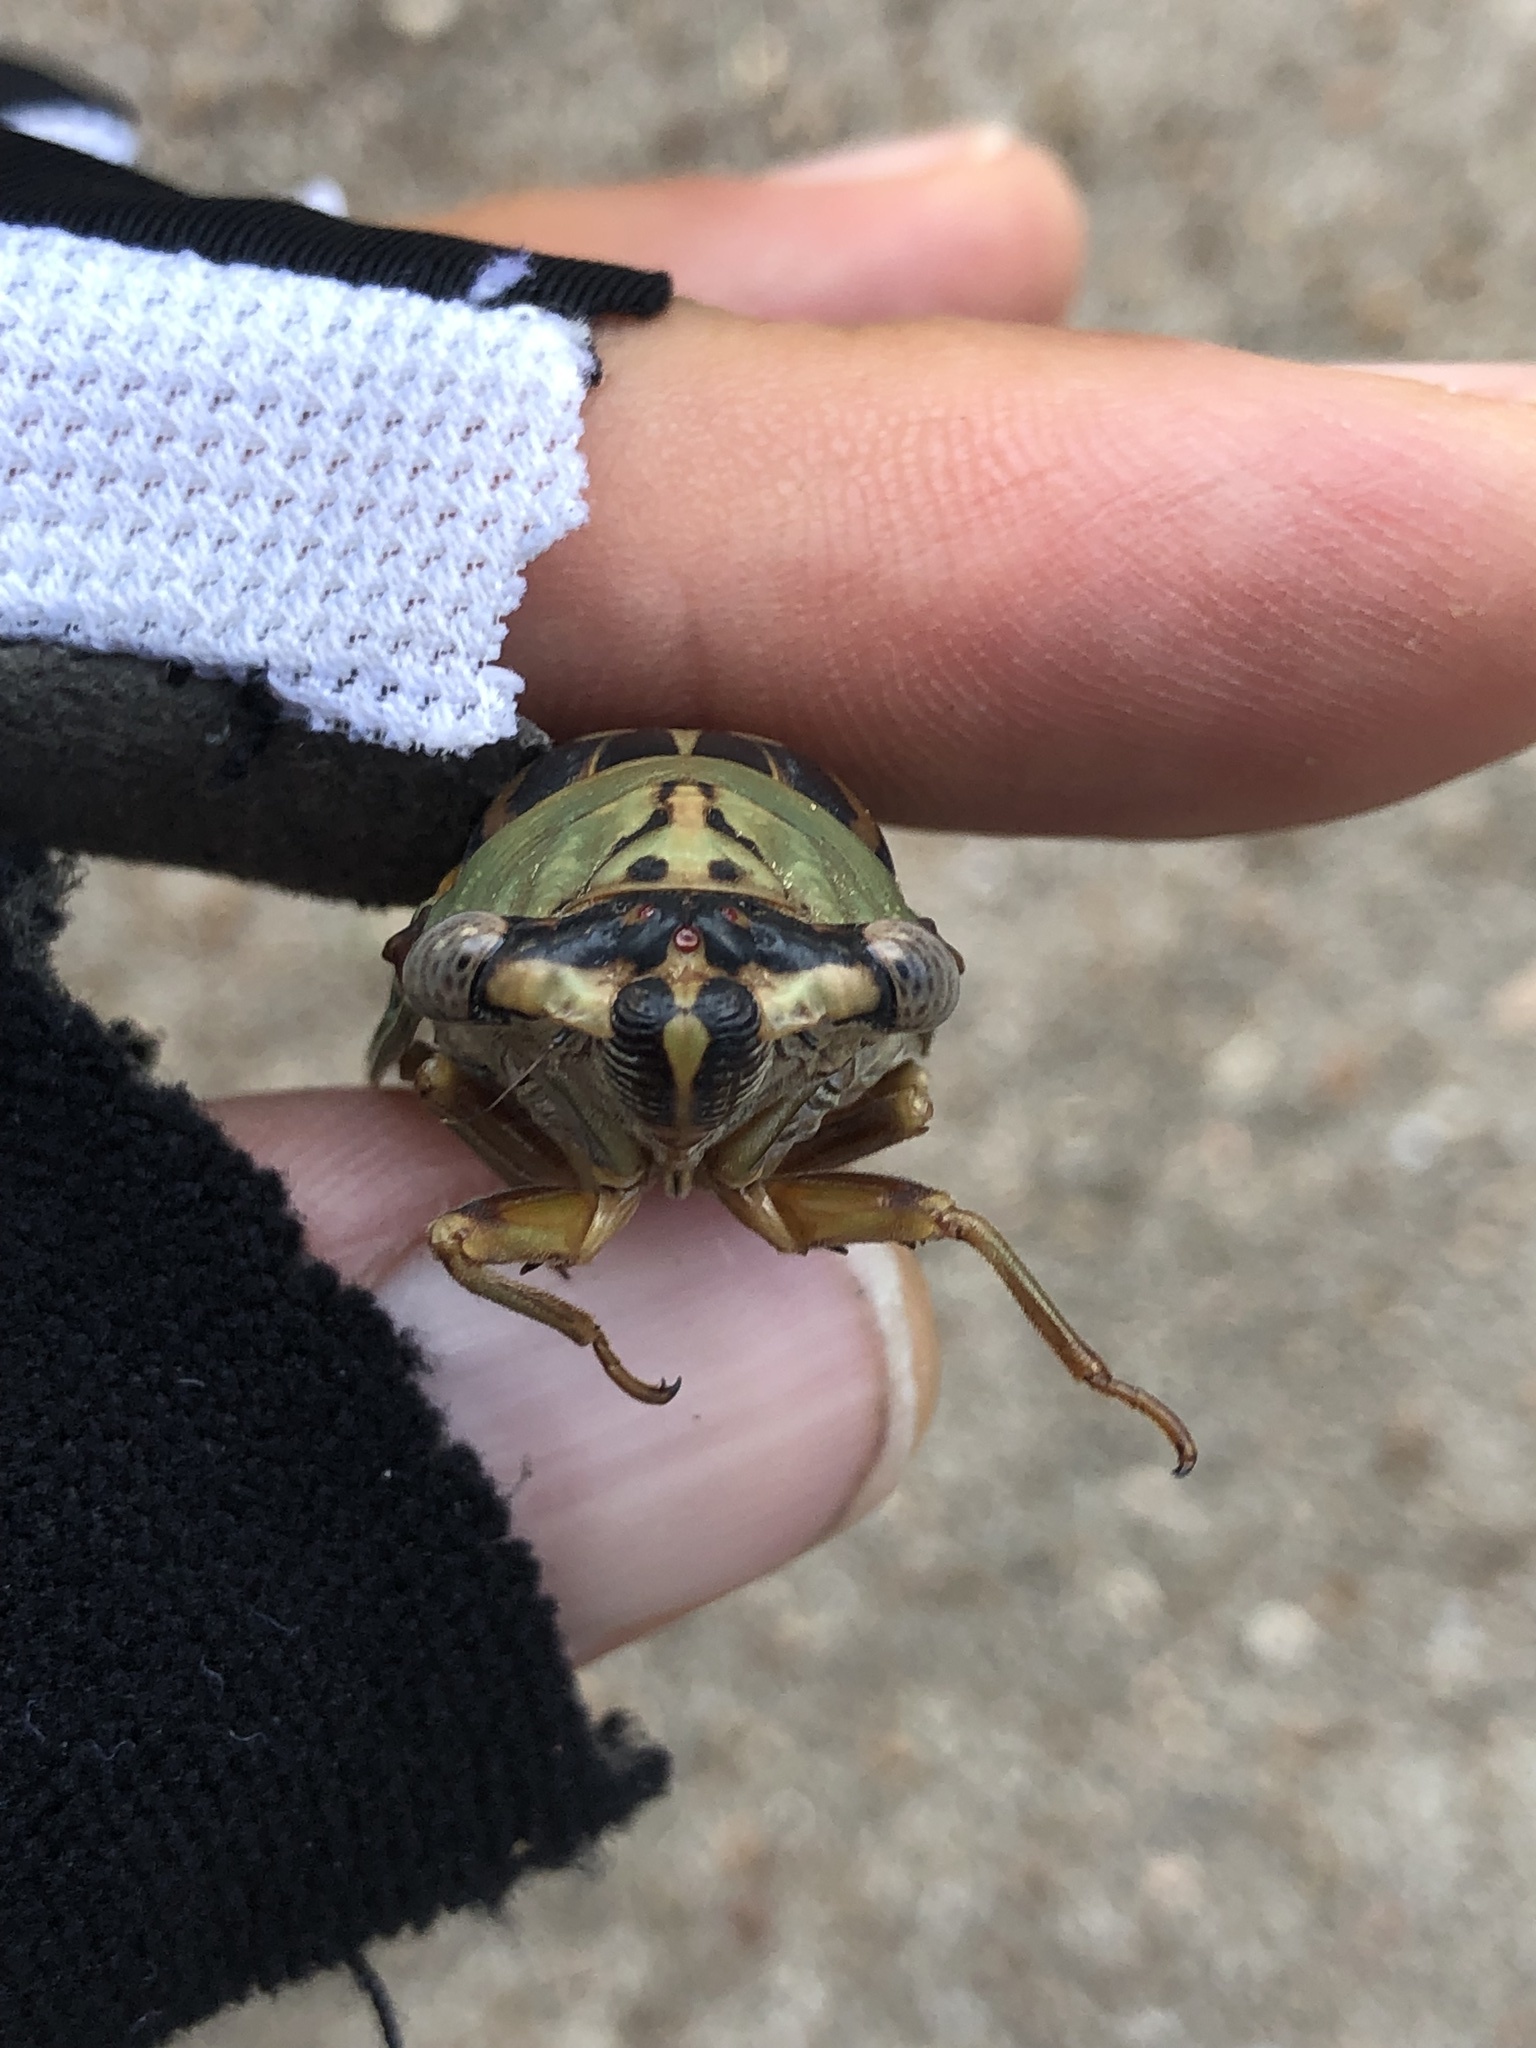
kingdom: Animalia
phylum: Arthropoda
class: Insecta
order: Hemiptera
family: Cicadidae
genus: Megatibicen
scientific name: Megatibicen resh
